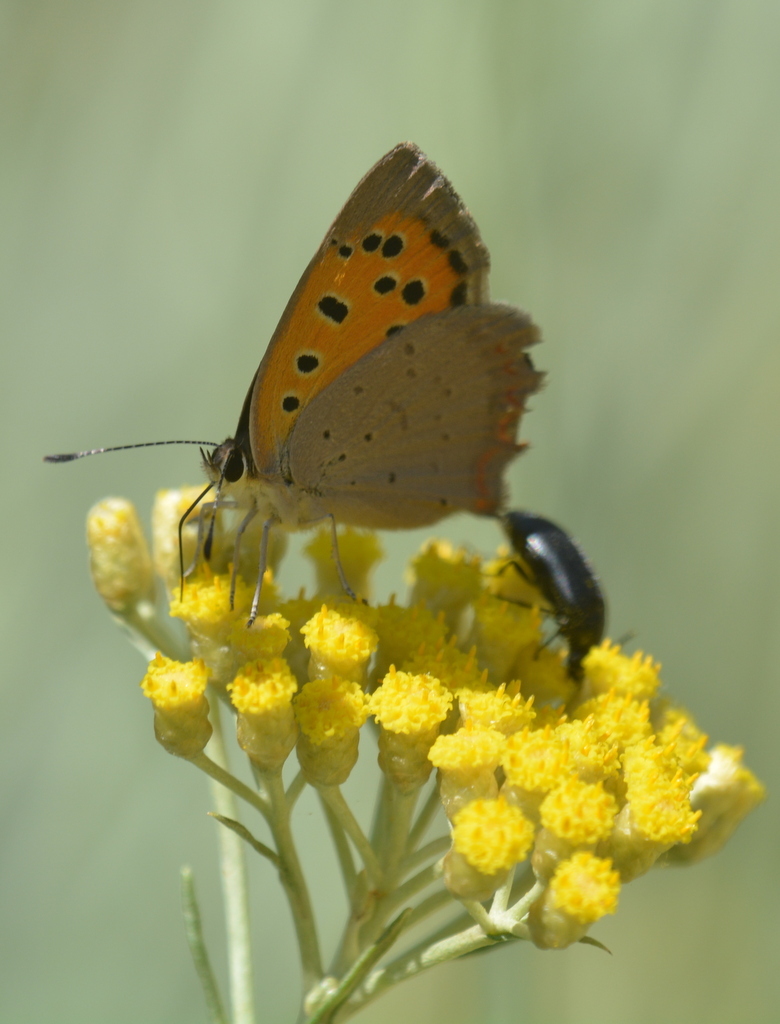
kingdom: Animalia
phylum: Arthropoda
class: Insecta
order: Lepidoptera
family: Lycaenidae
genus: Lycaena
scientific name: Lycaena phlaeas
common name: Small copper
